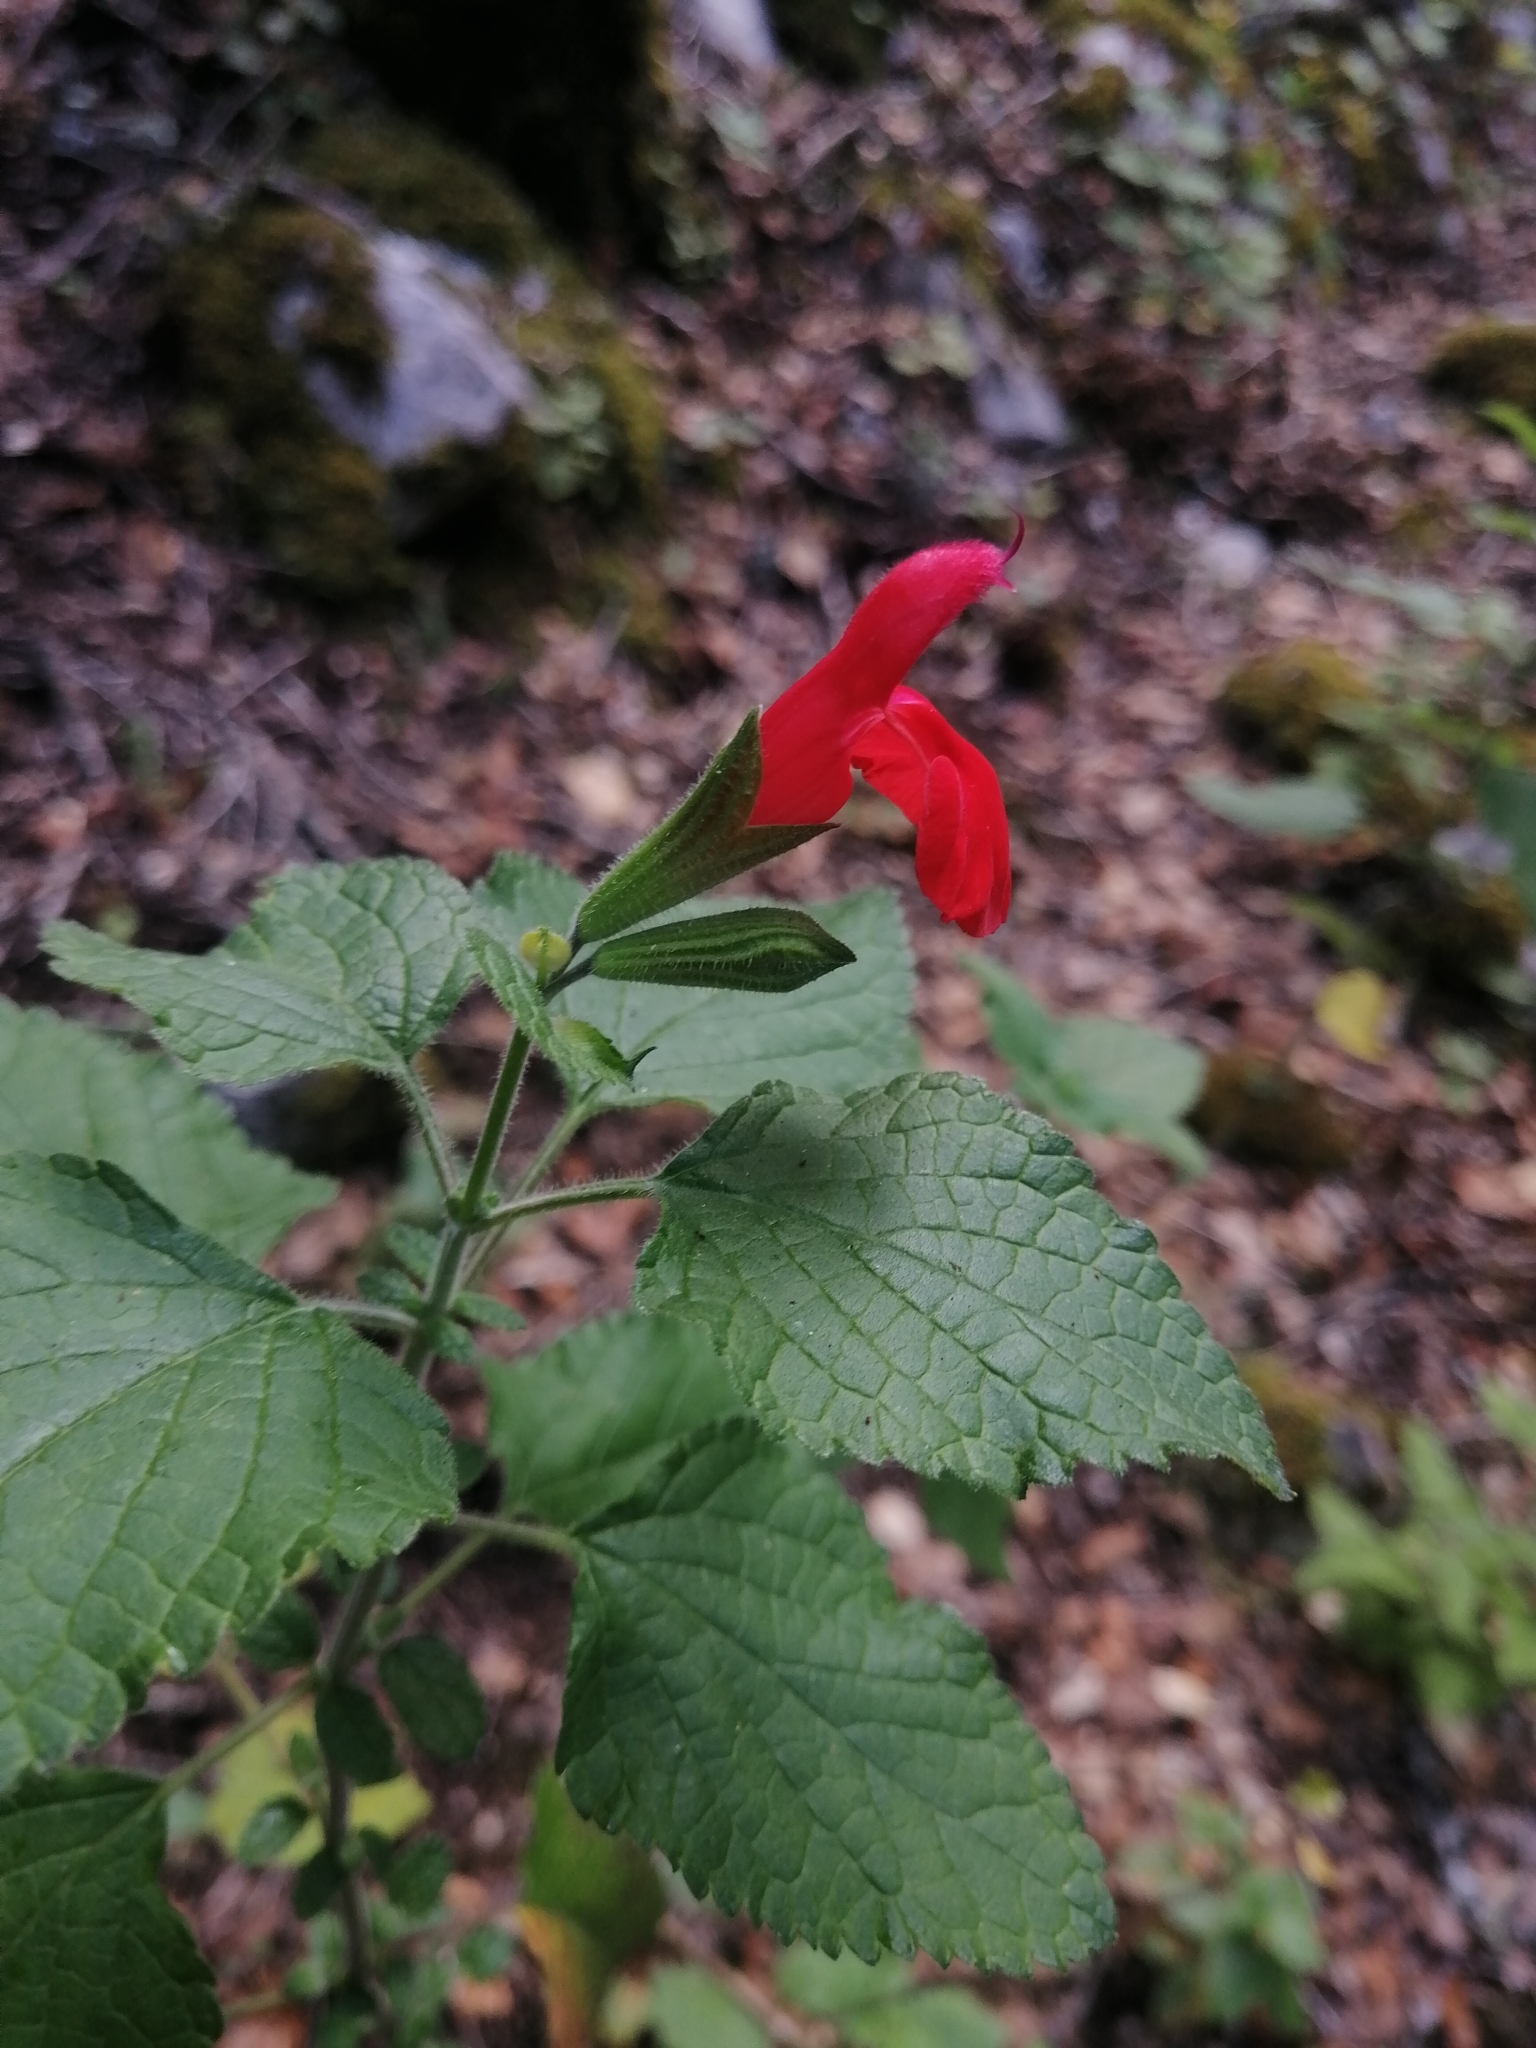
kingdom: Plantae
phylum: Tracheophyta
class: Magnoliopsida
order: Lamiales
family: Lamiaceae
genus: Salvia
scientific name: Salvia microphylla
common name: Baby sage
